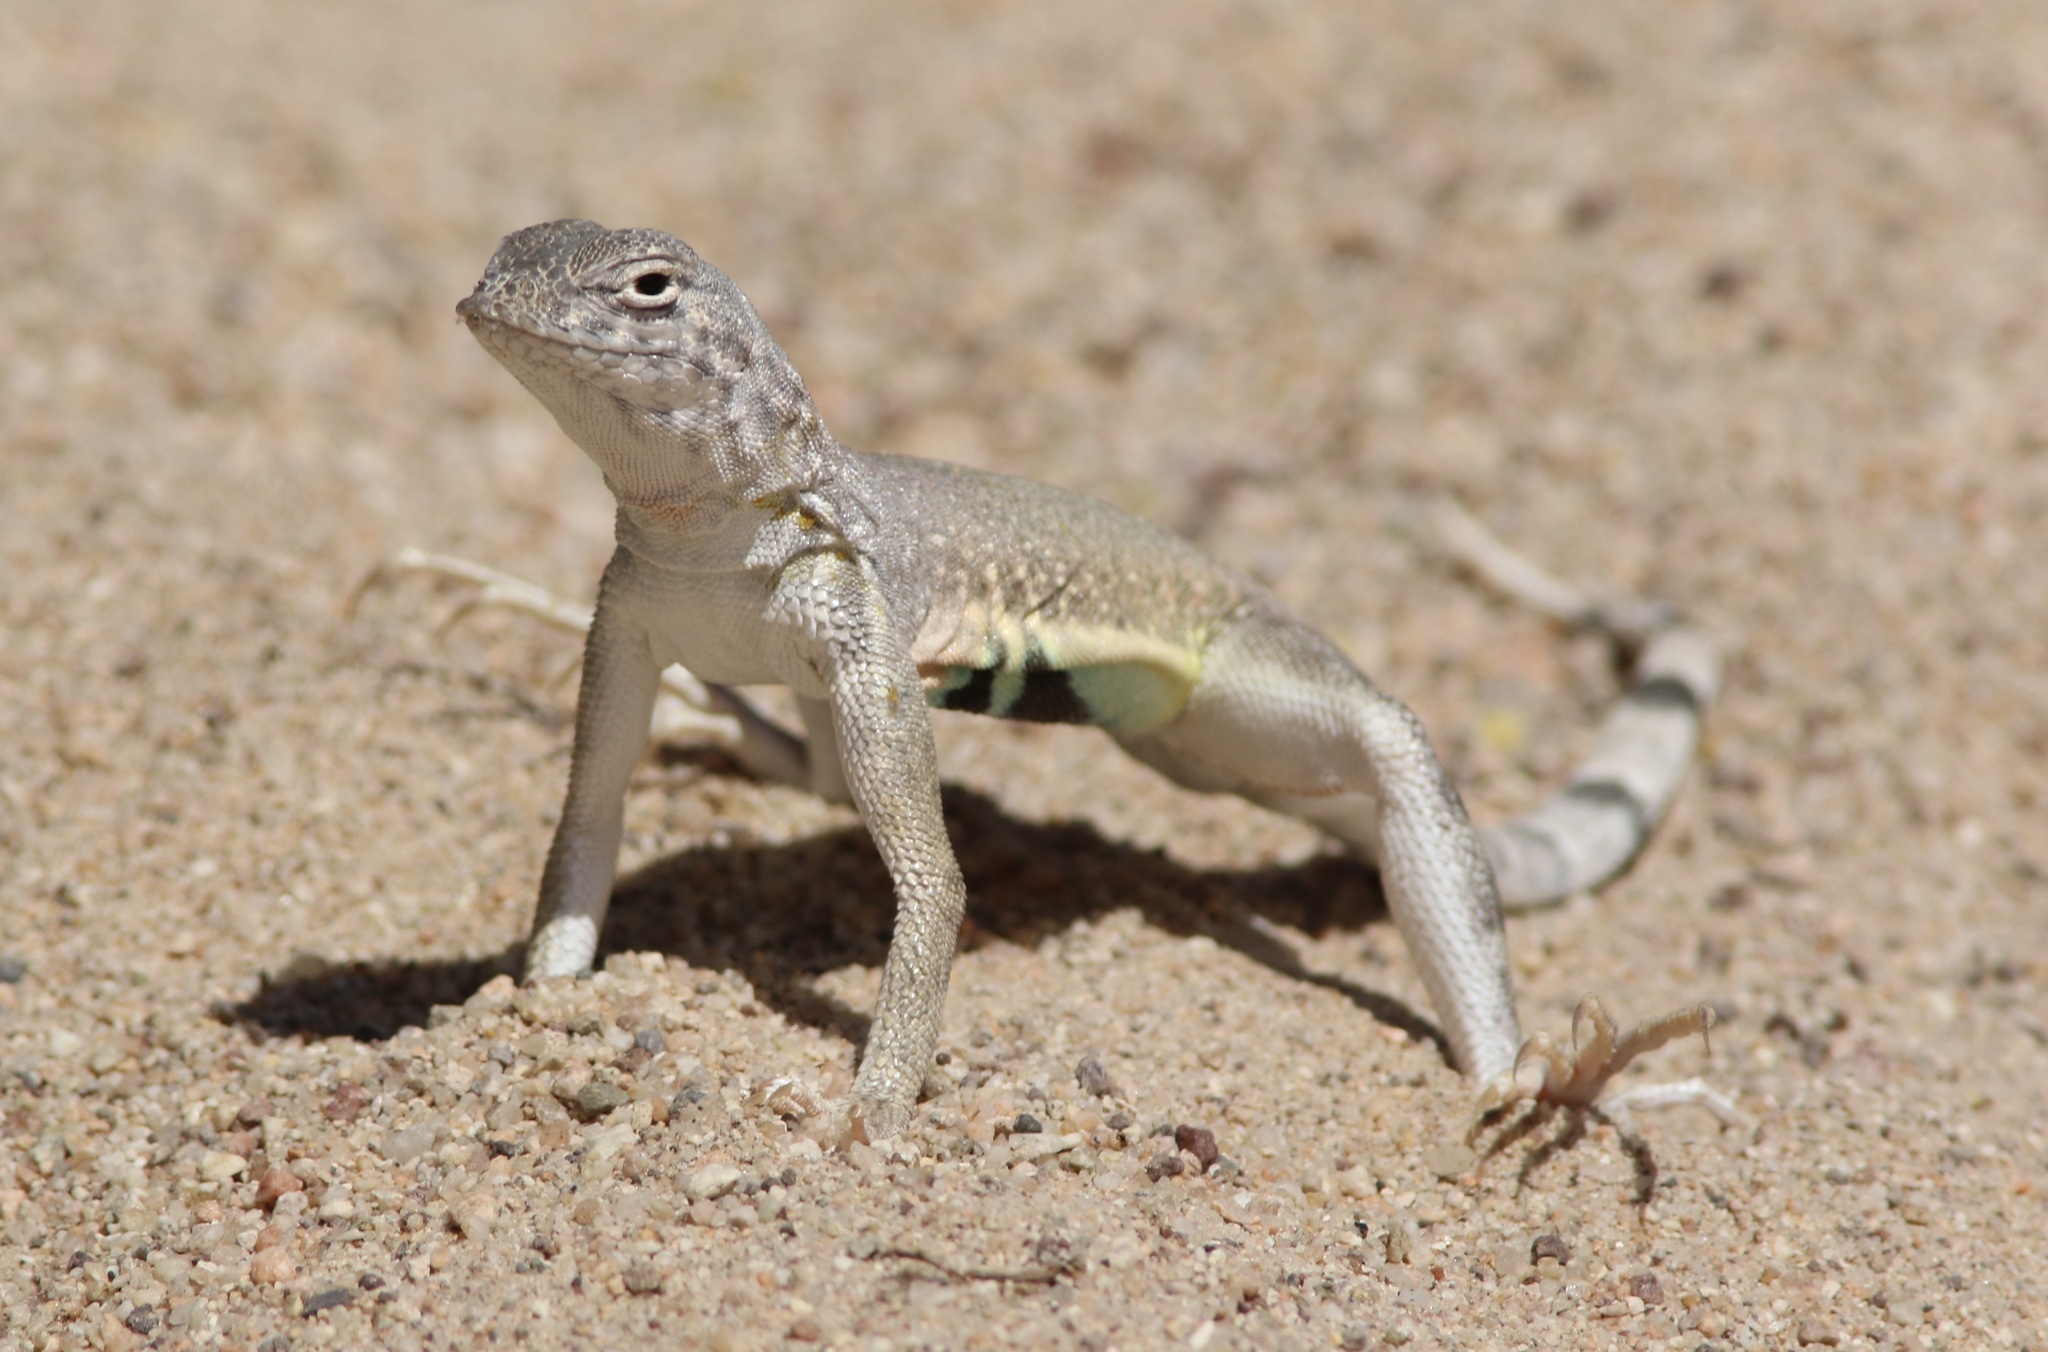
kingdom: Animalia
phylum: Chordata
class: Squamata
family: Phrynosomatidae
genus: Callisaurus
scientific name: Callisaurus draconoides
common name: Zebra-tailed lizard
